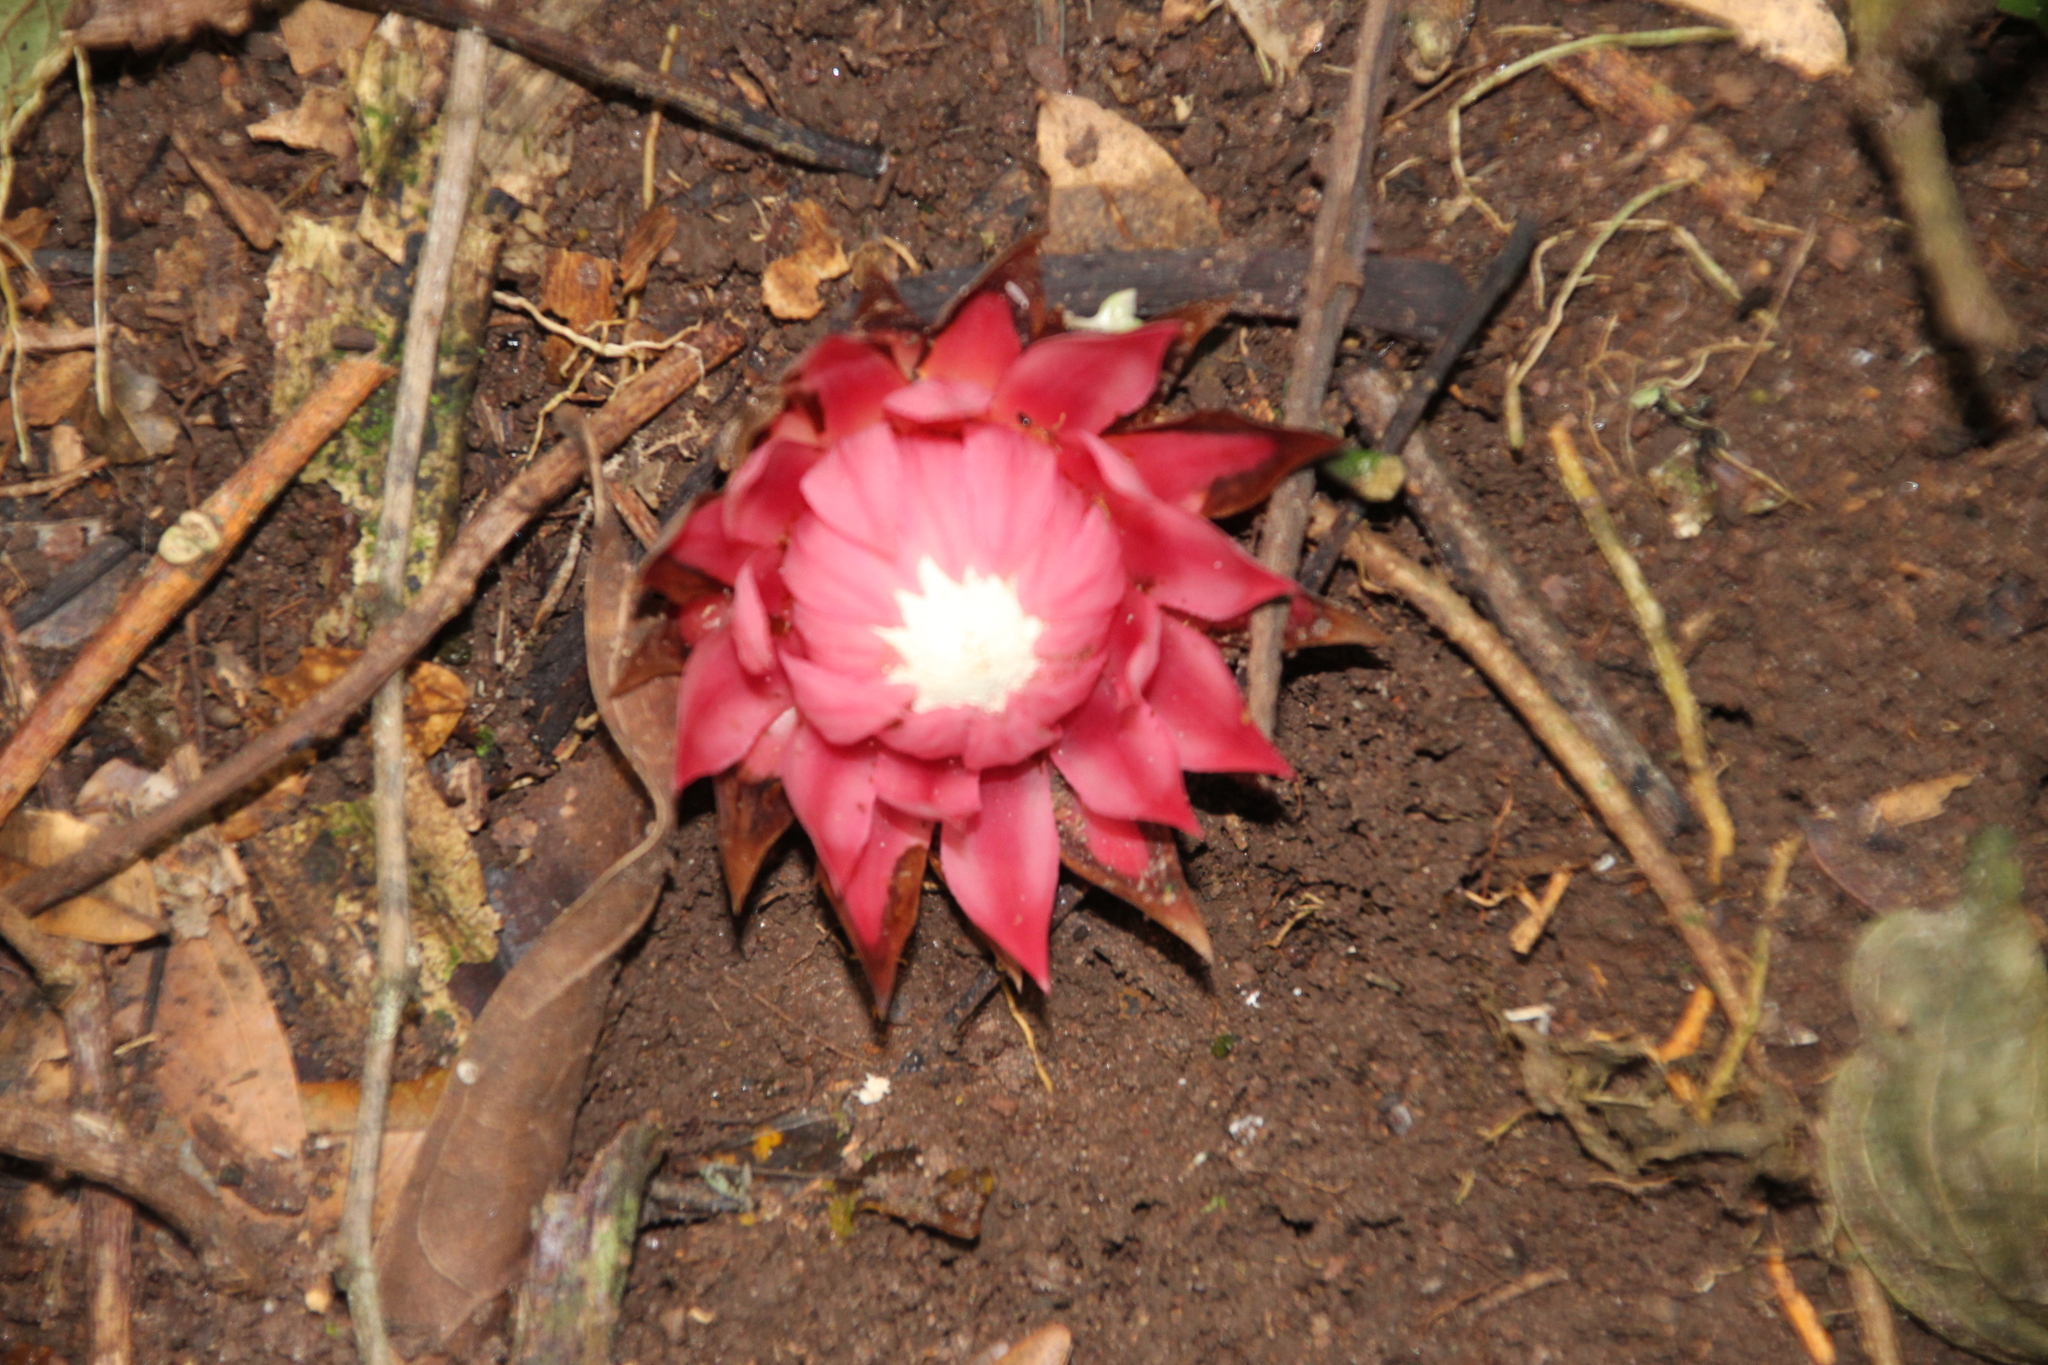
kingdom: Plantae
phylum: Tracheophyta
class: Magnoliopsida
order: Santalales
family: Balanophoraceae
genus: Thonningia
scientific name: Thonningia sanguinea
